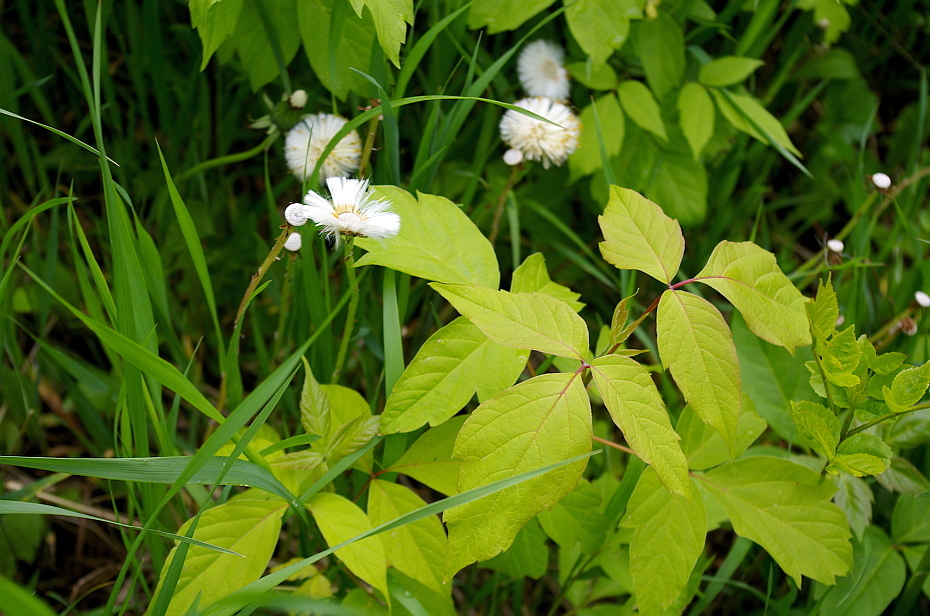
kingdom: Plantae
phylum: Tracheophyta
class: Magnoliopsida
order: Sapindales
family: Sapindaceae
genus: Acer
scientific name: Acer negundo
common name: Ashleaf maple
